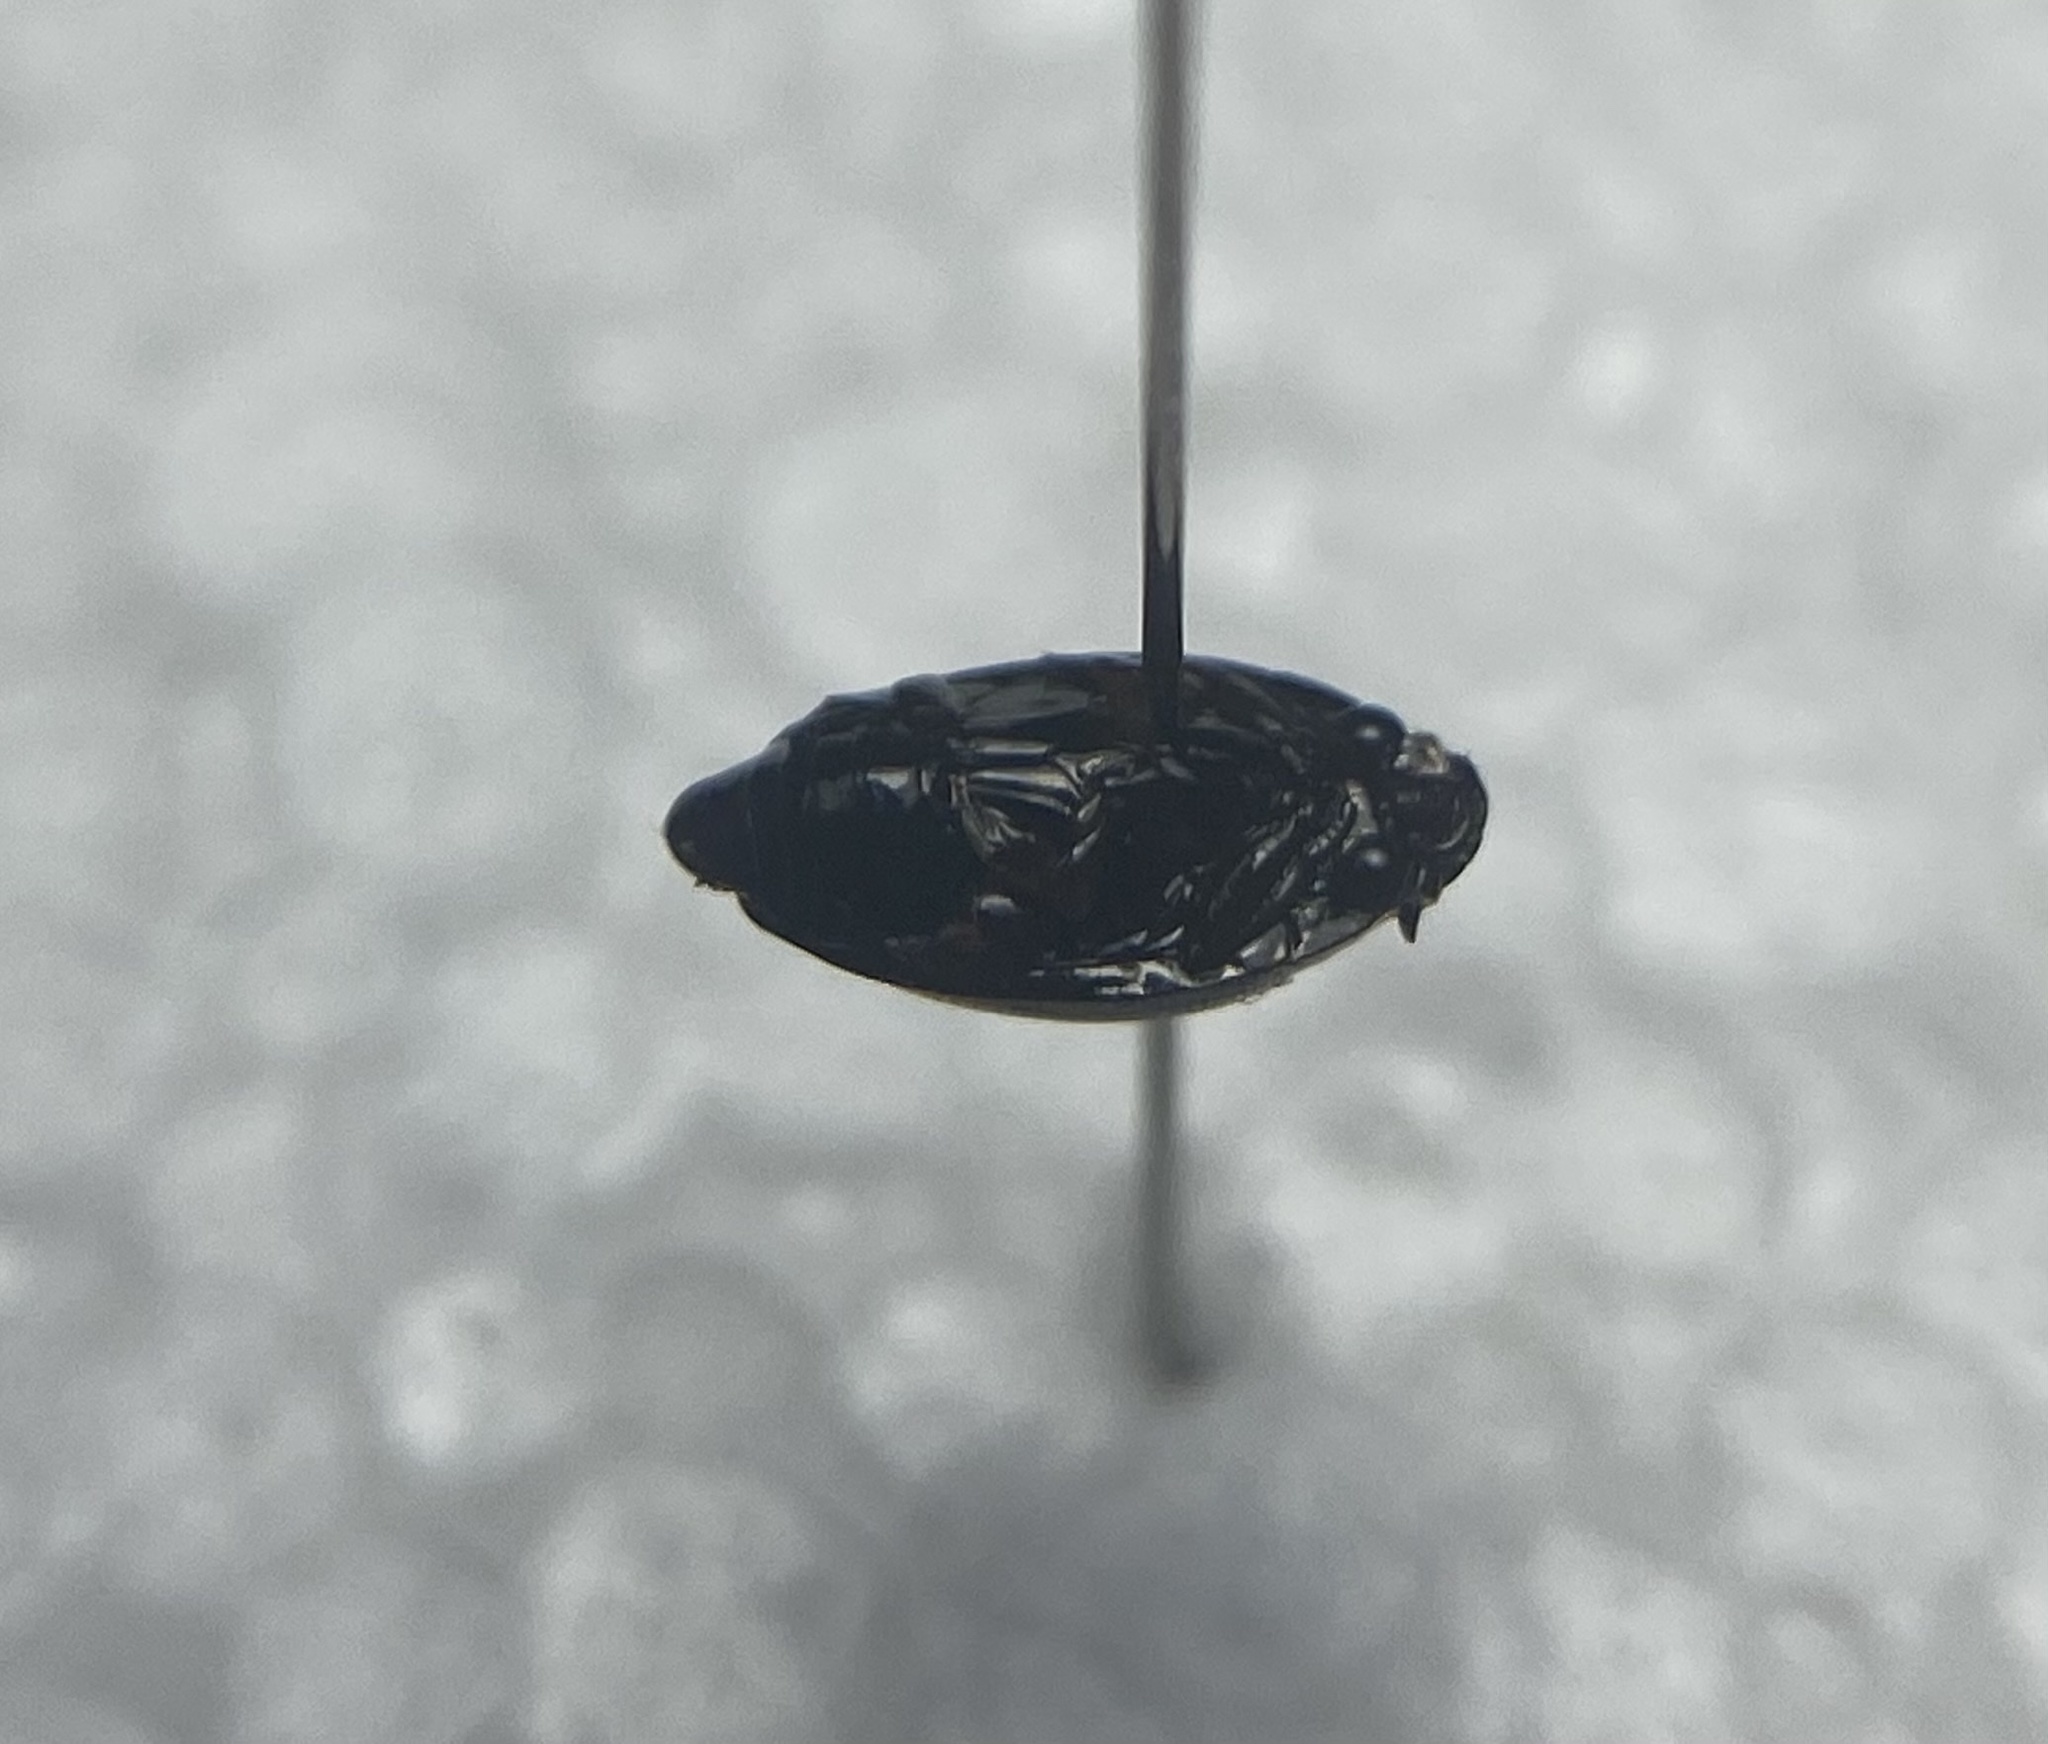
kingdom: Animalia
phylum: Arthropoda
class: Insecta
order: Coleoptera
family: Gyrinidae
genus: Gyrinus
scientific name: Gyrinus
